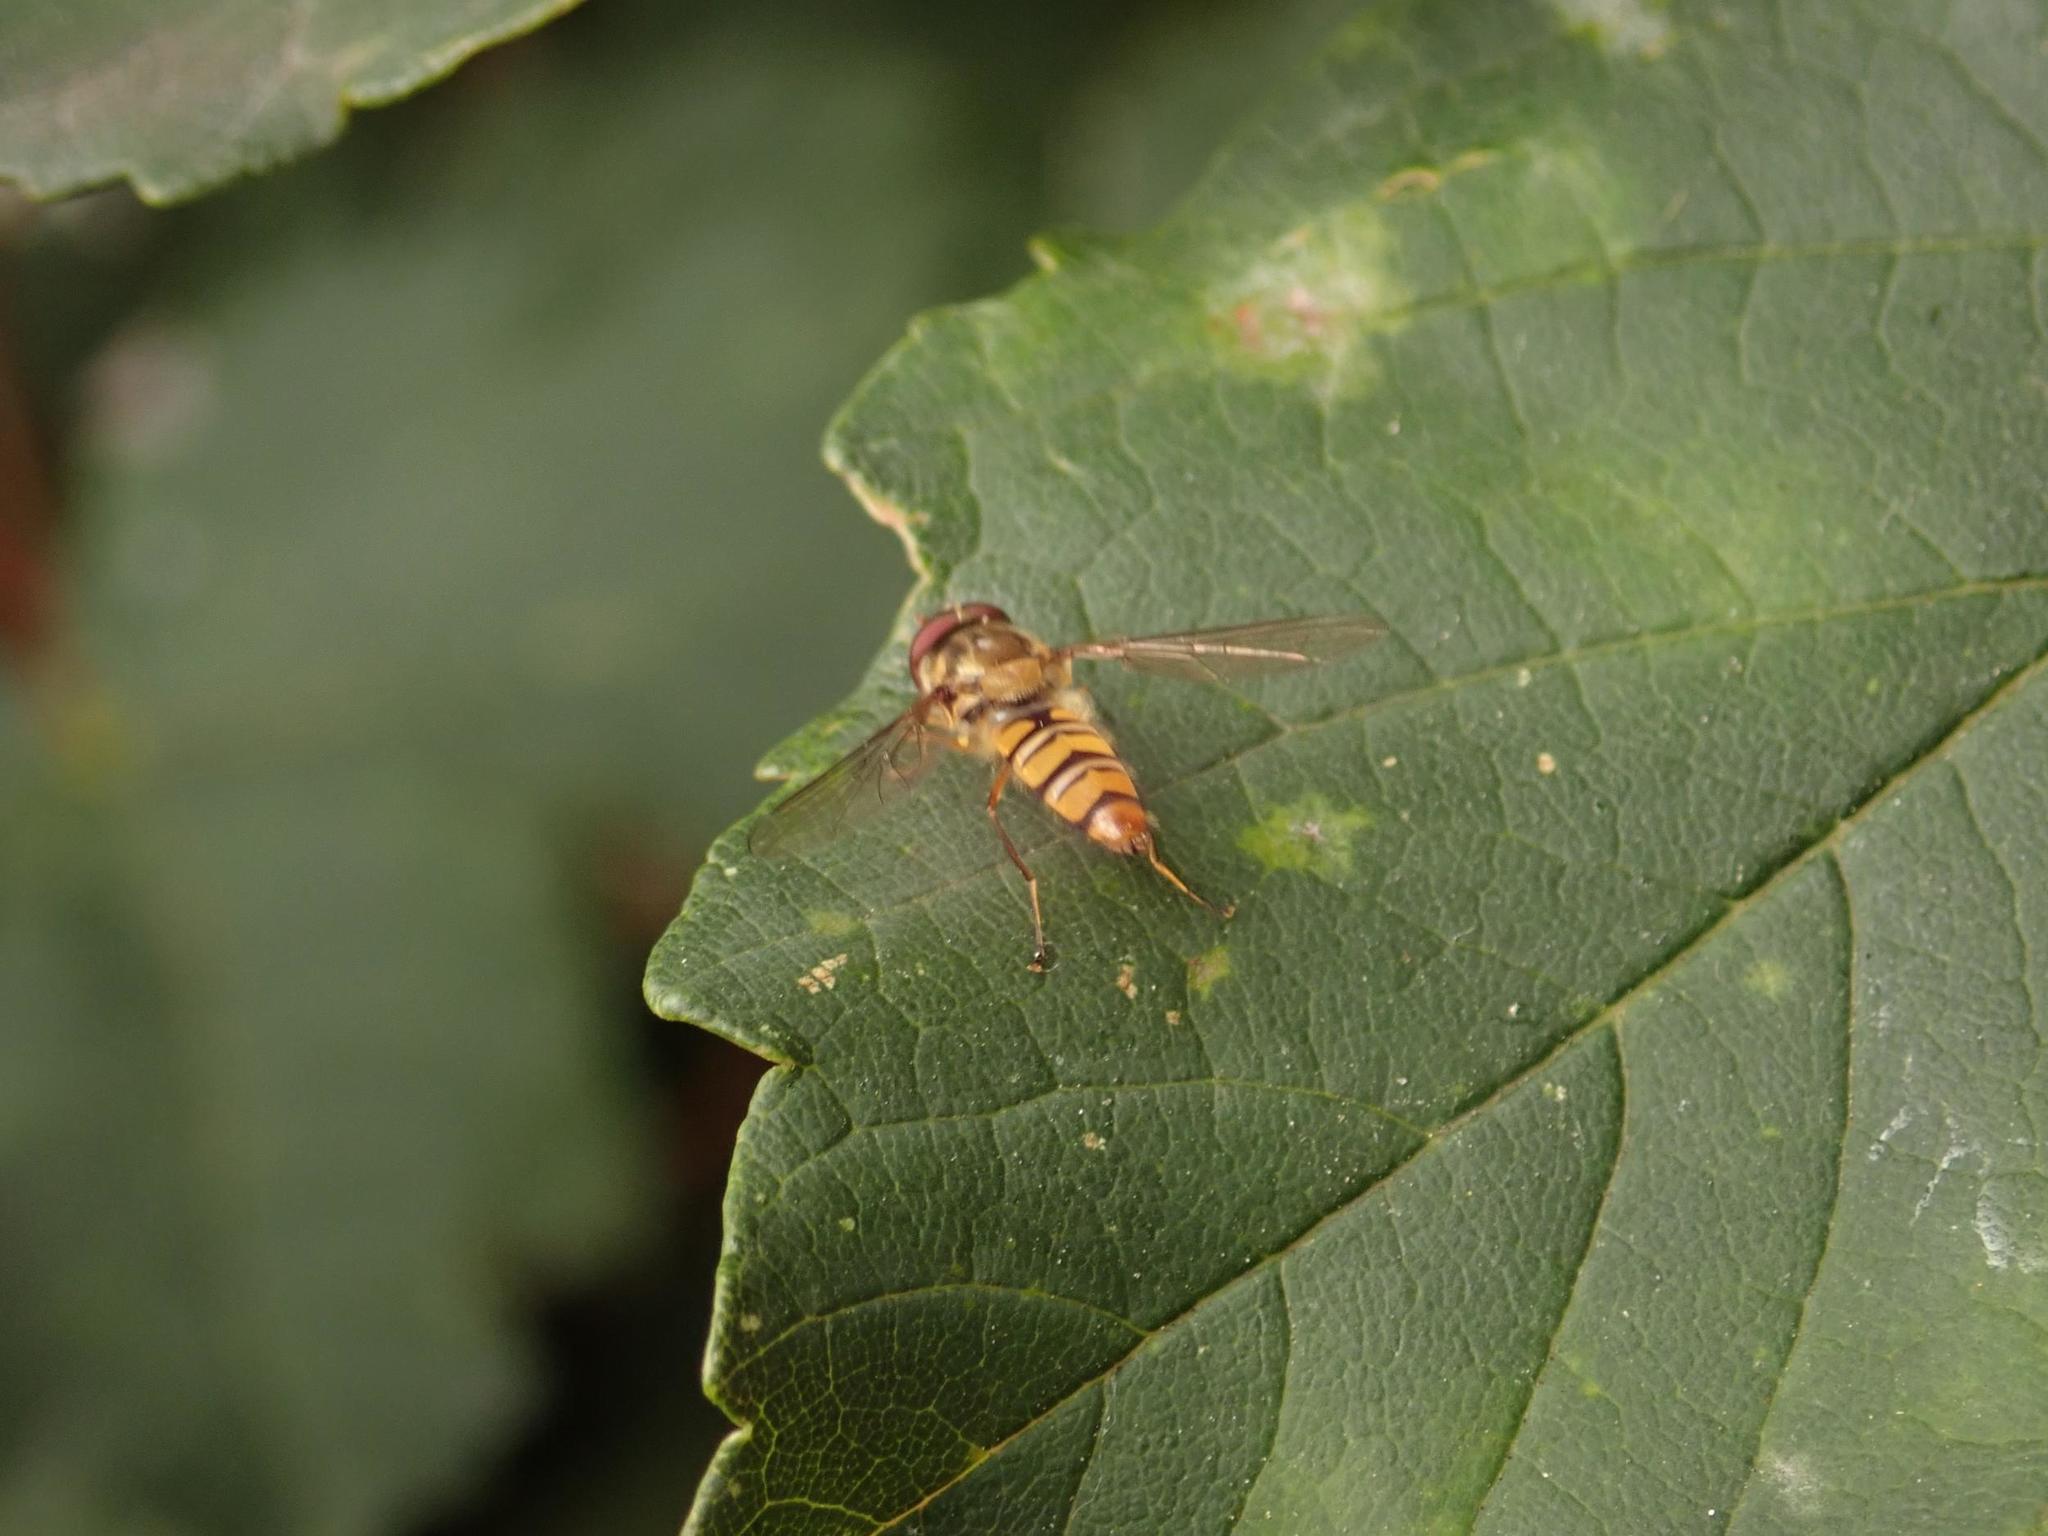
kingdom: Animalia
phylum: Arthropoda
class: Insecta
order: Diptera
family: Syrphidae
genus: Episyrphus
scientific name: Episyrphus balteatus
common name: Marmalade hoverfly
